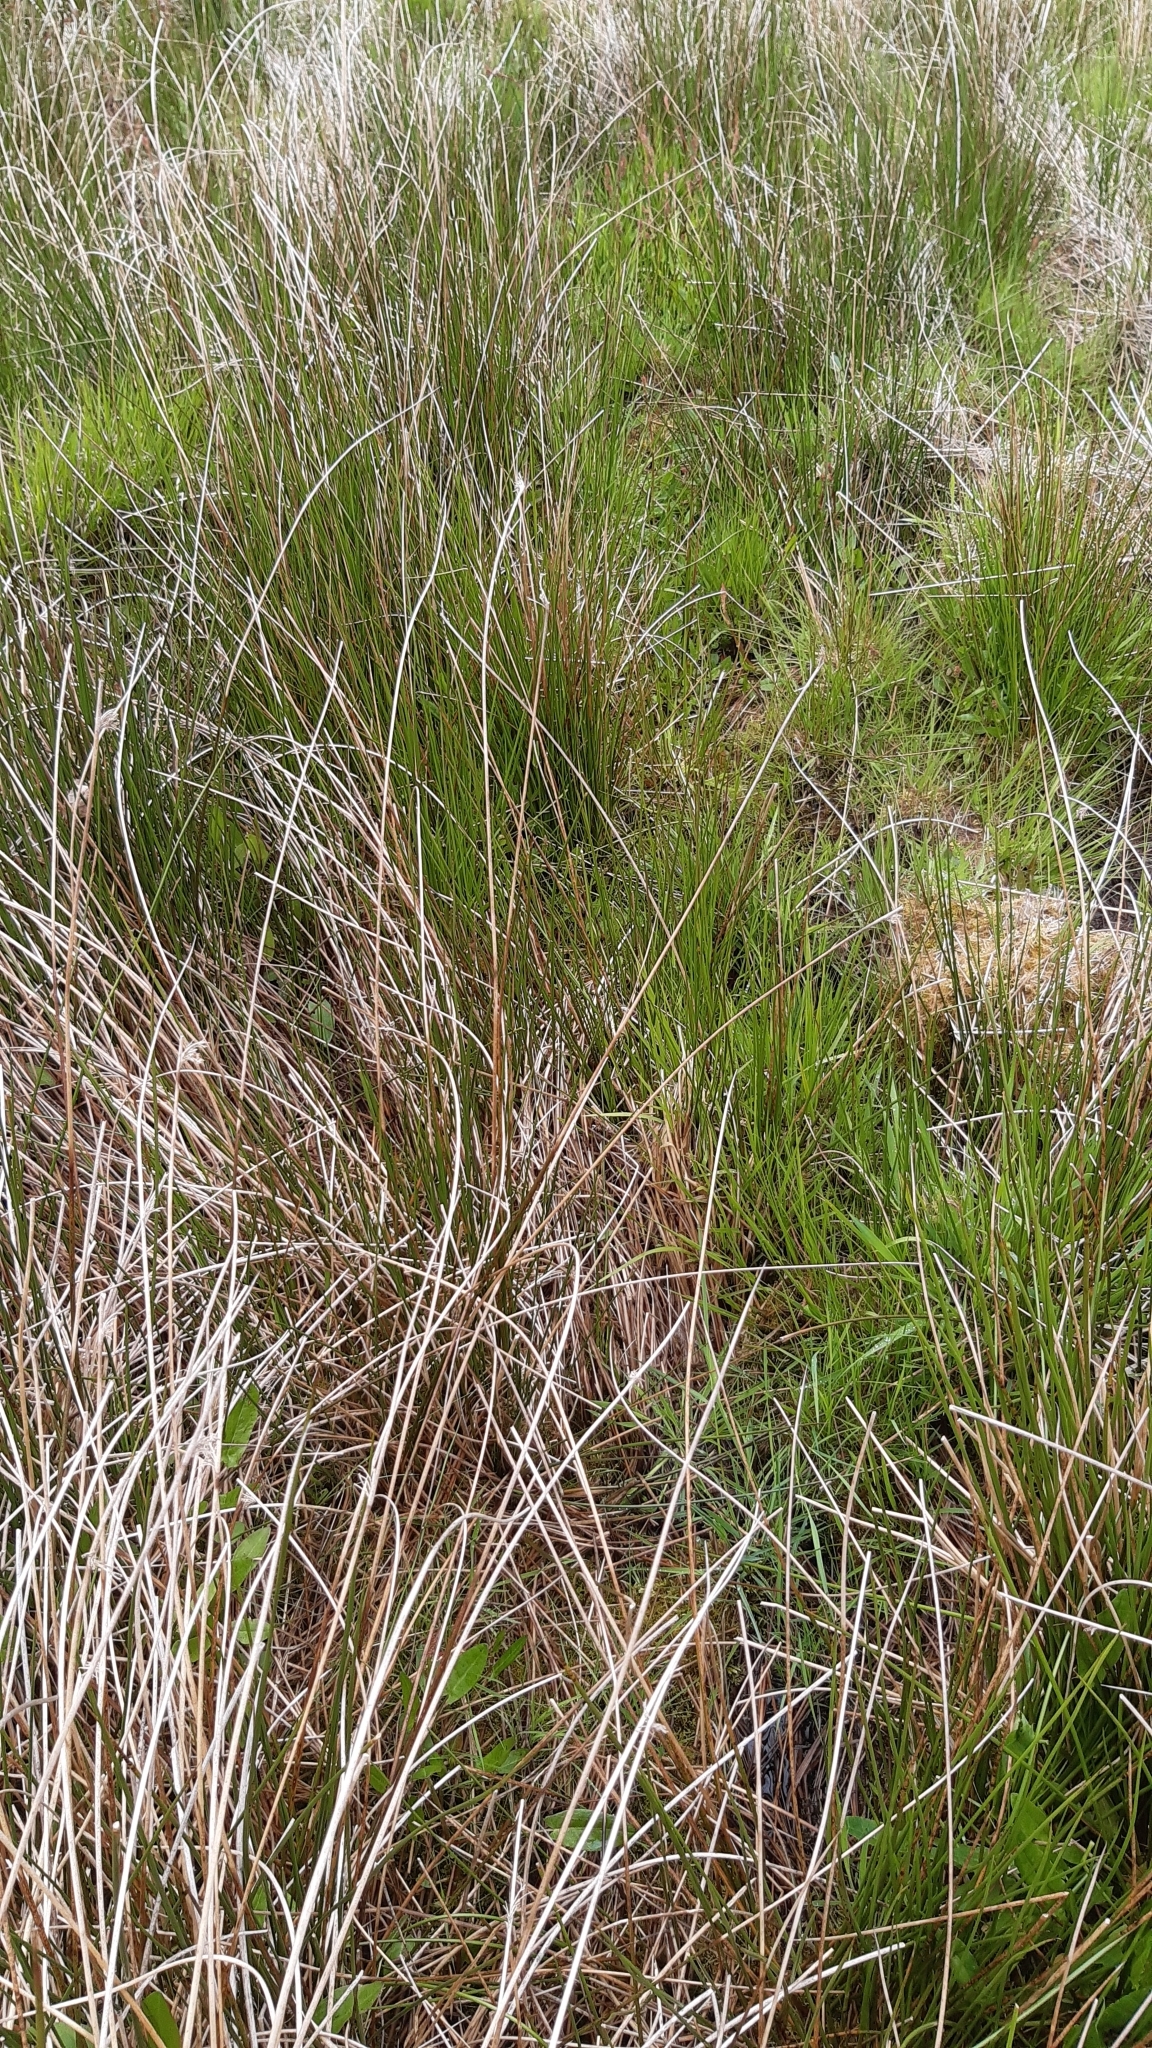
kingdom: Plantae
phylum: Tracheophyta
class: Liliopsida
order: Poales
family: Juncaceae
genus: Juncus
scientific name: Juncus effusus
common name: Soft rush
